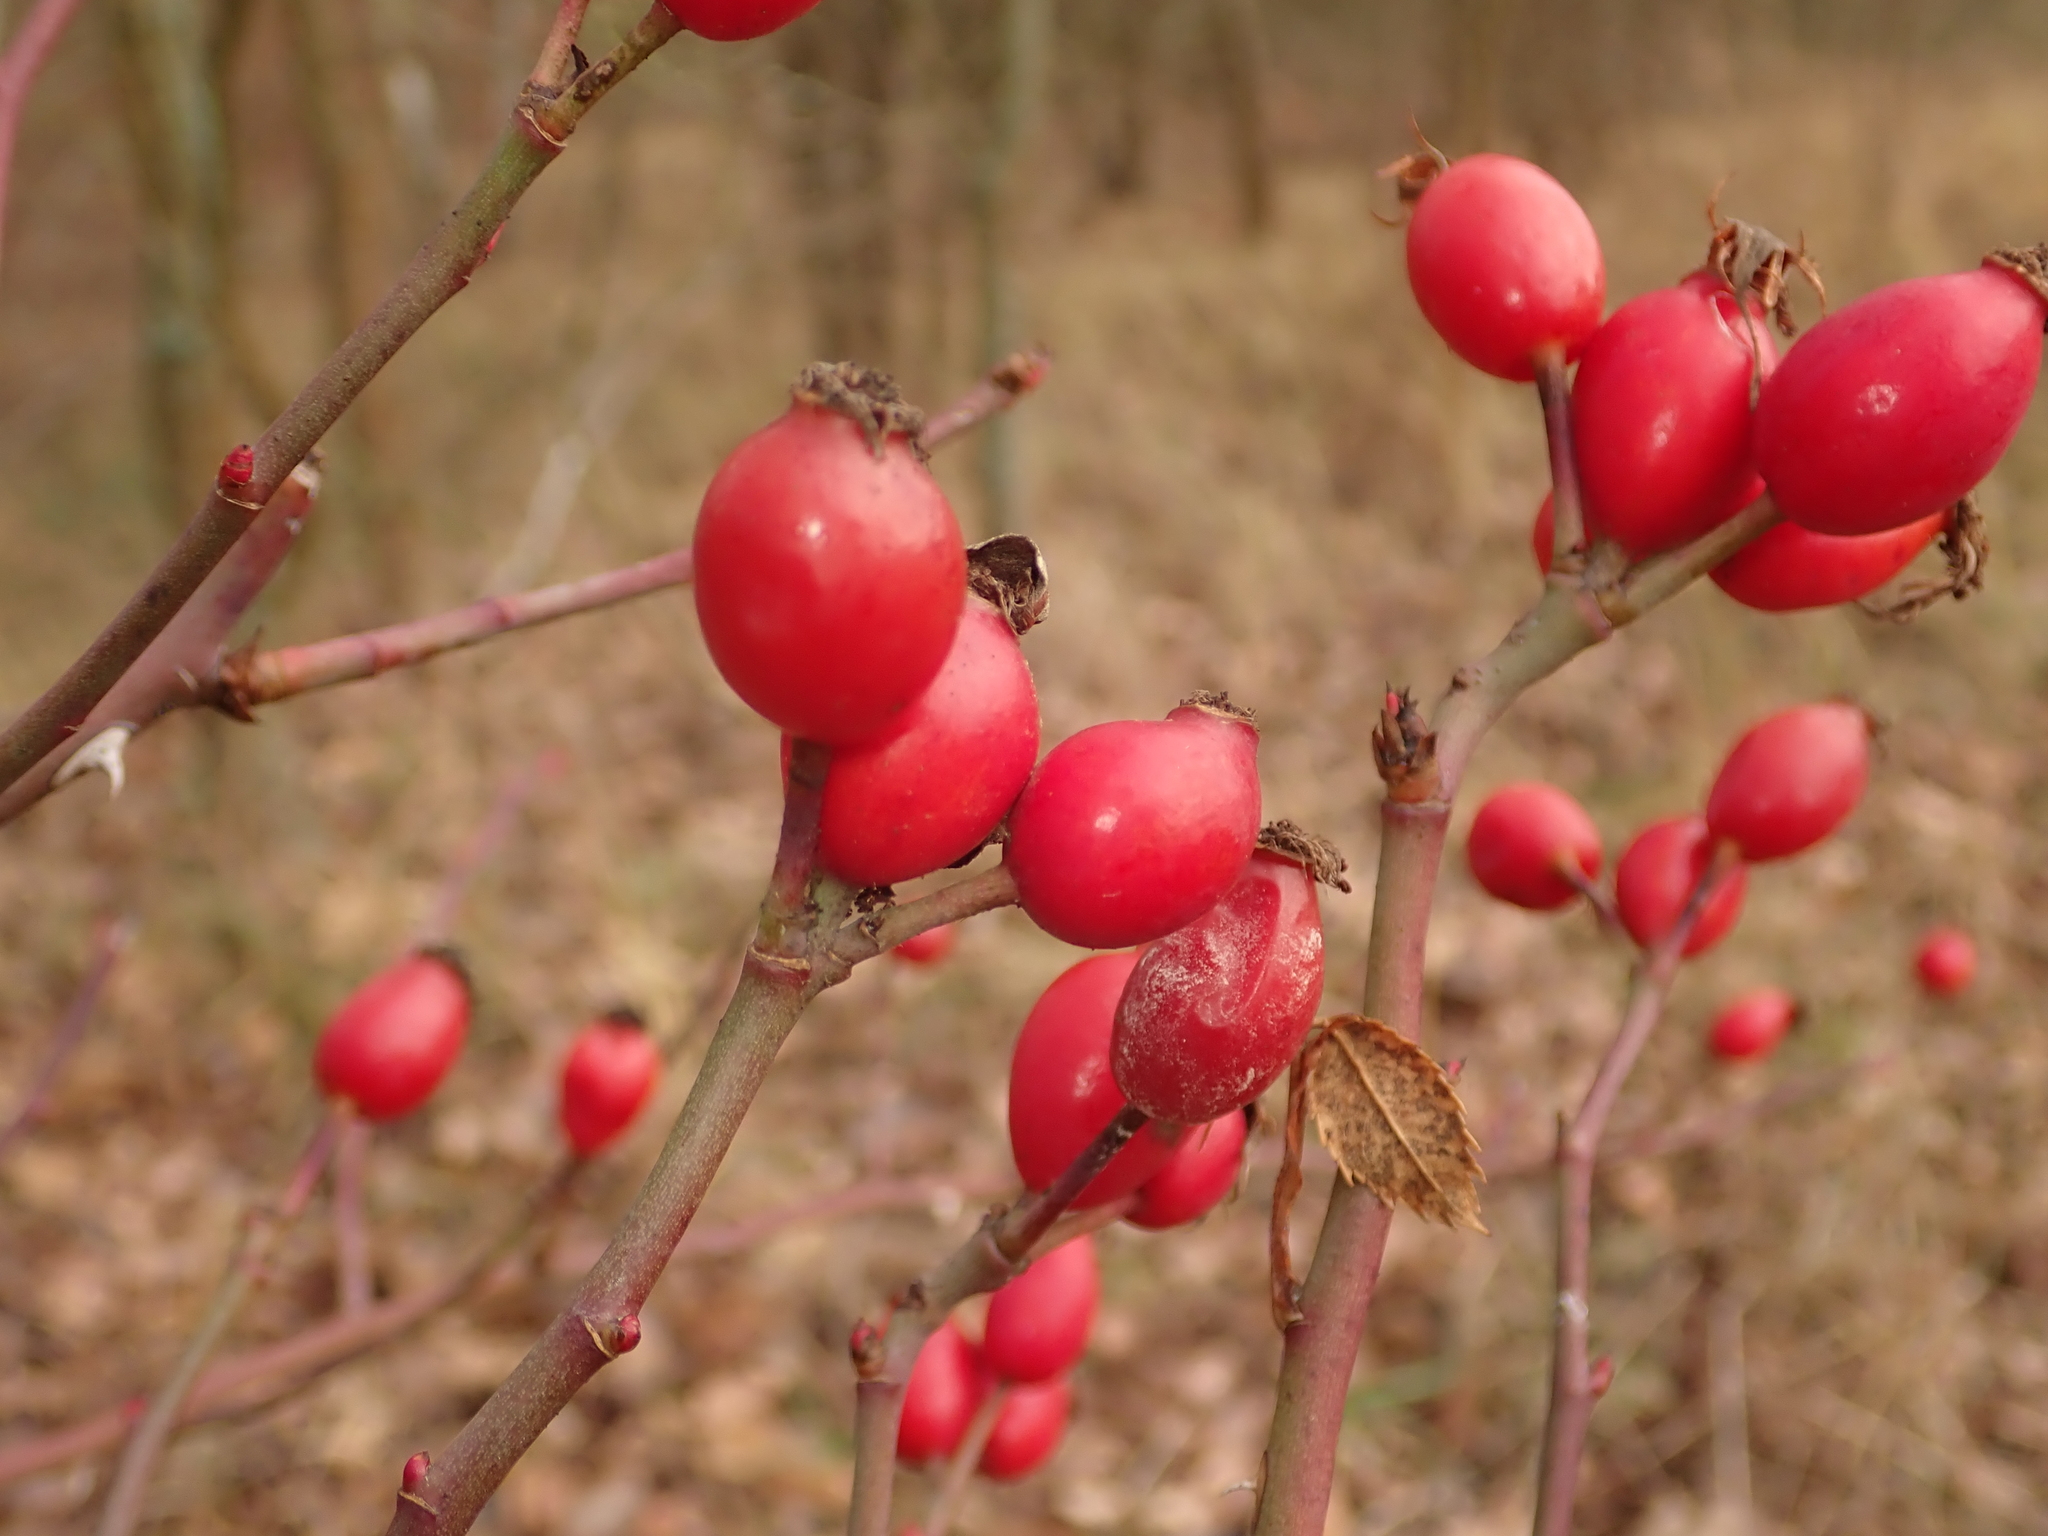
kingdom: Plantae
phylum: Tracheophyta
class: Magnoliopsida
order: Rosales
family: Rosaceae
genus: Rosa
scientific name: Rosa canina
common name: Dog rose
